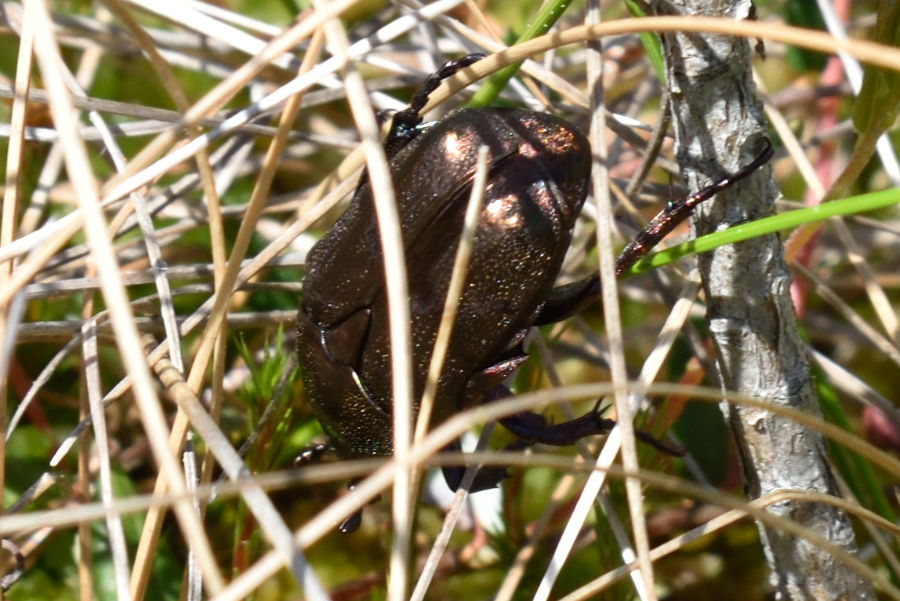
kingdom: Animalia
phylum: Arthropoda
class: Insecta
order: Coleoptera
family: Scarabaeidae
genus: Protaetia
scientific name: Protaetia cuprea
